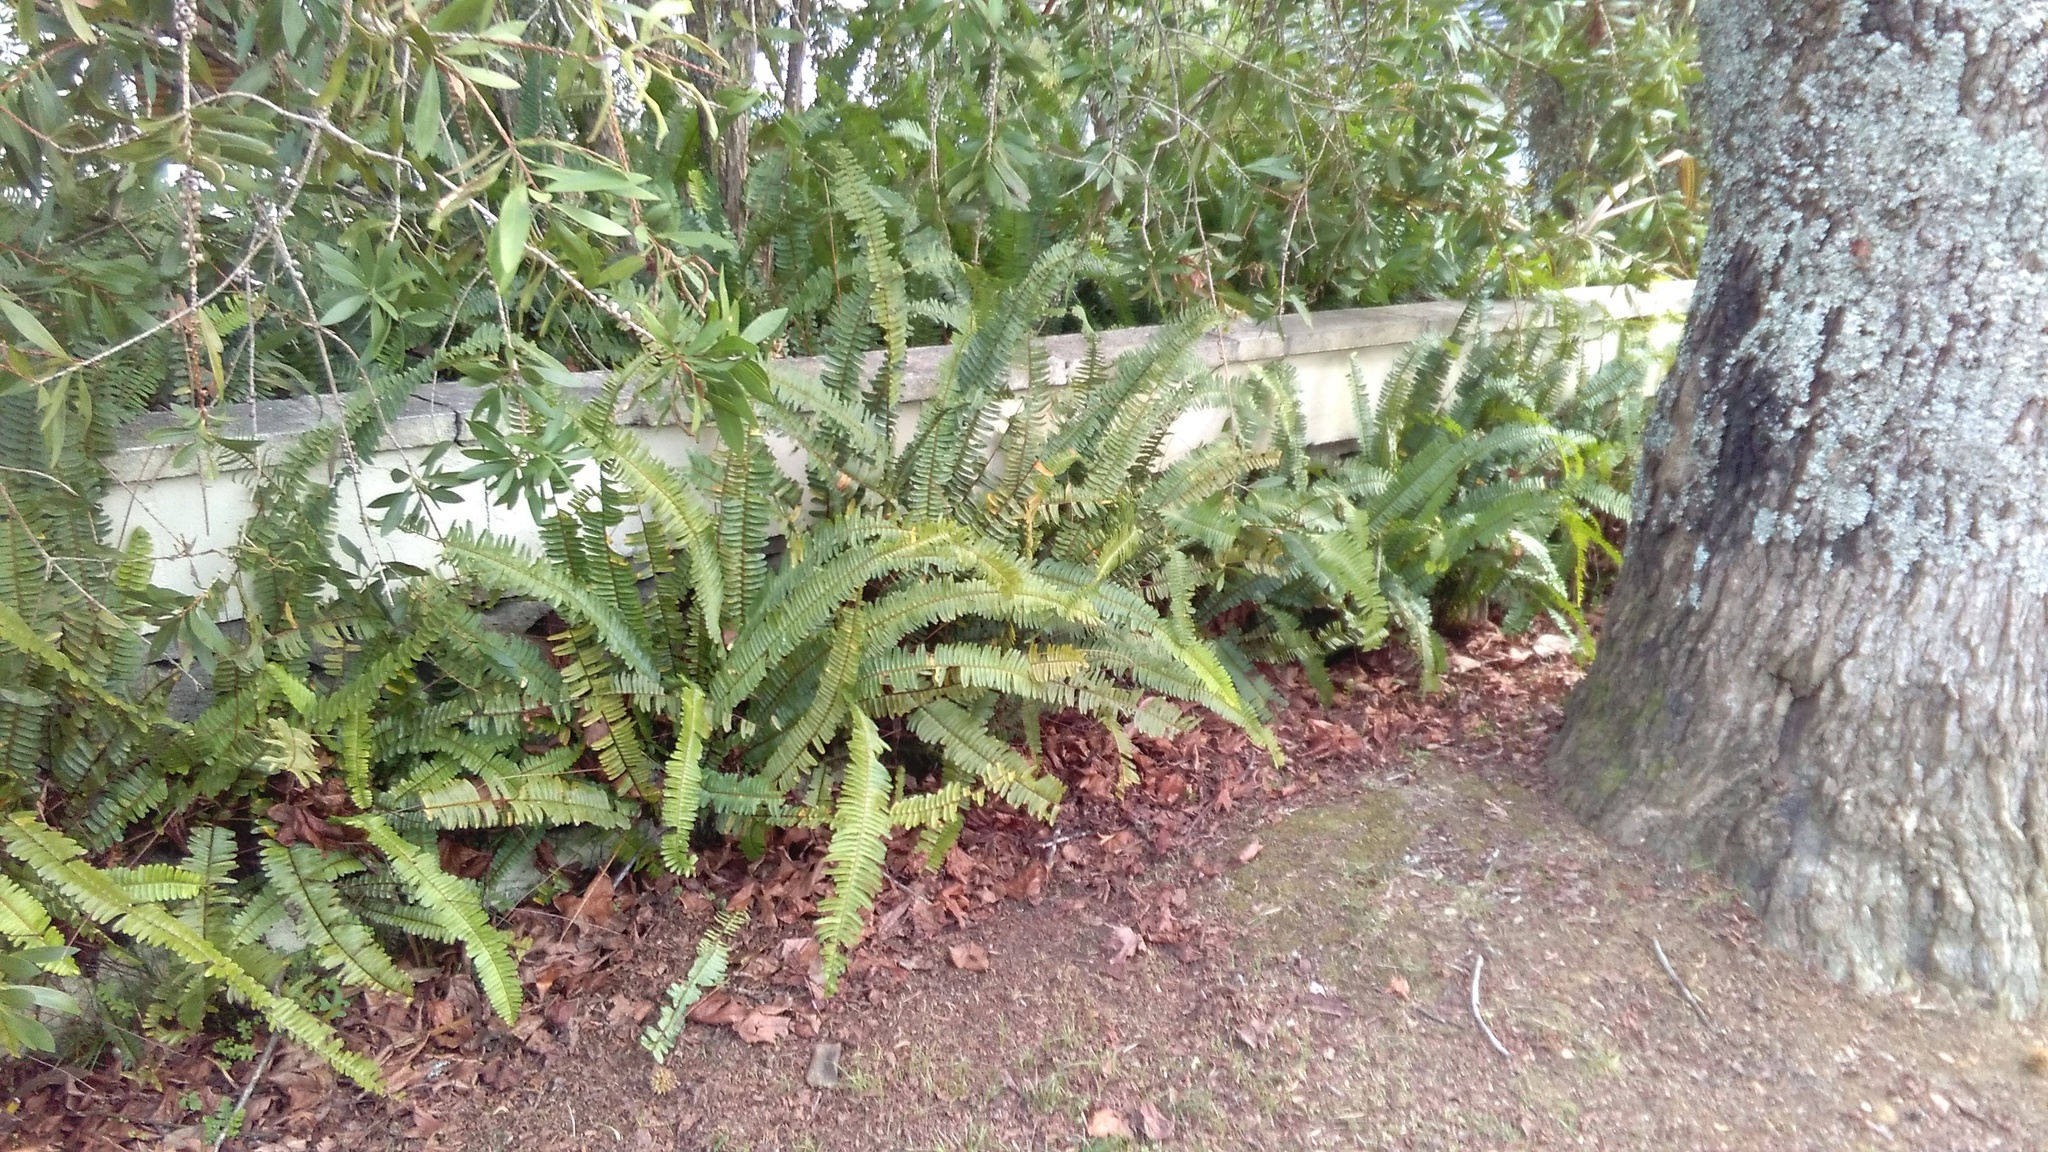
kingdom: Plantae
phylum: Tracheophyta
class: Polypodiopsida
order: Polypodiales
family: Nephrolepidaceae
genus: Nephrolepis
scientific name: Nephrolepis cordifolia
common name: Narrow swordfern
